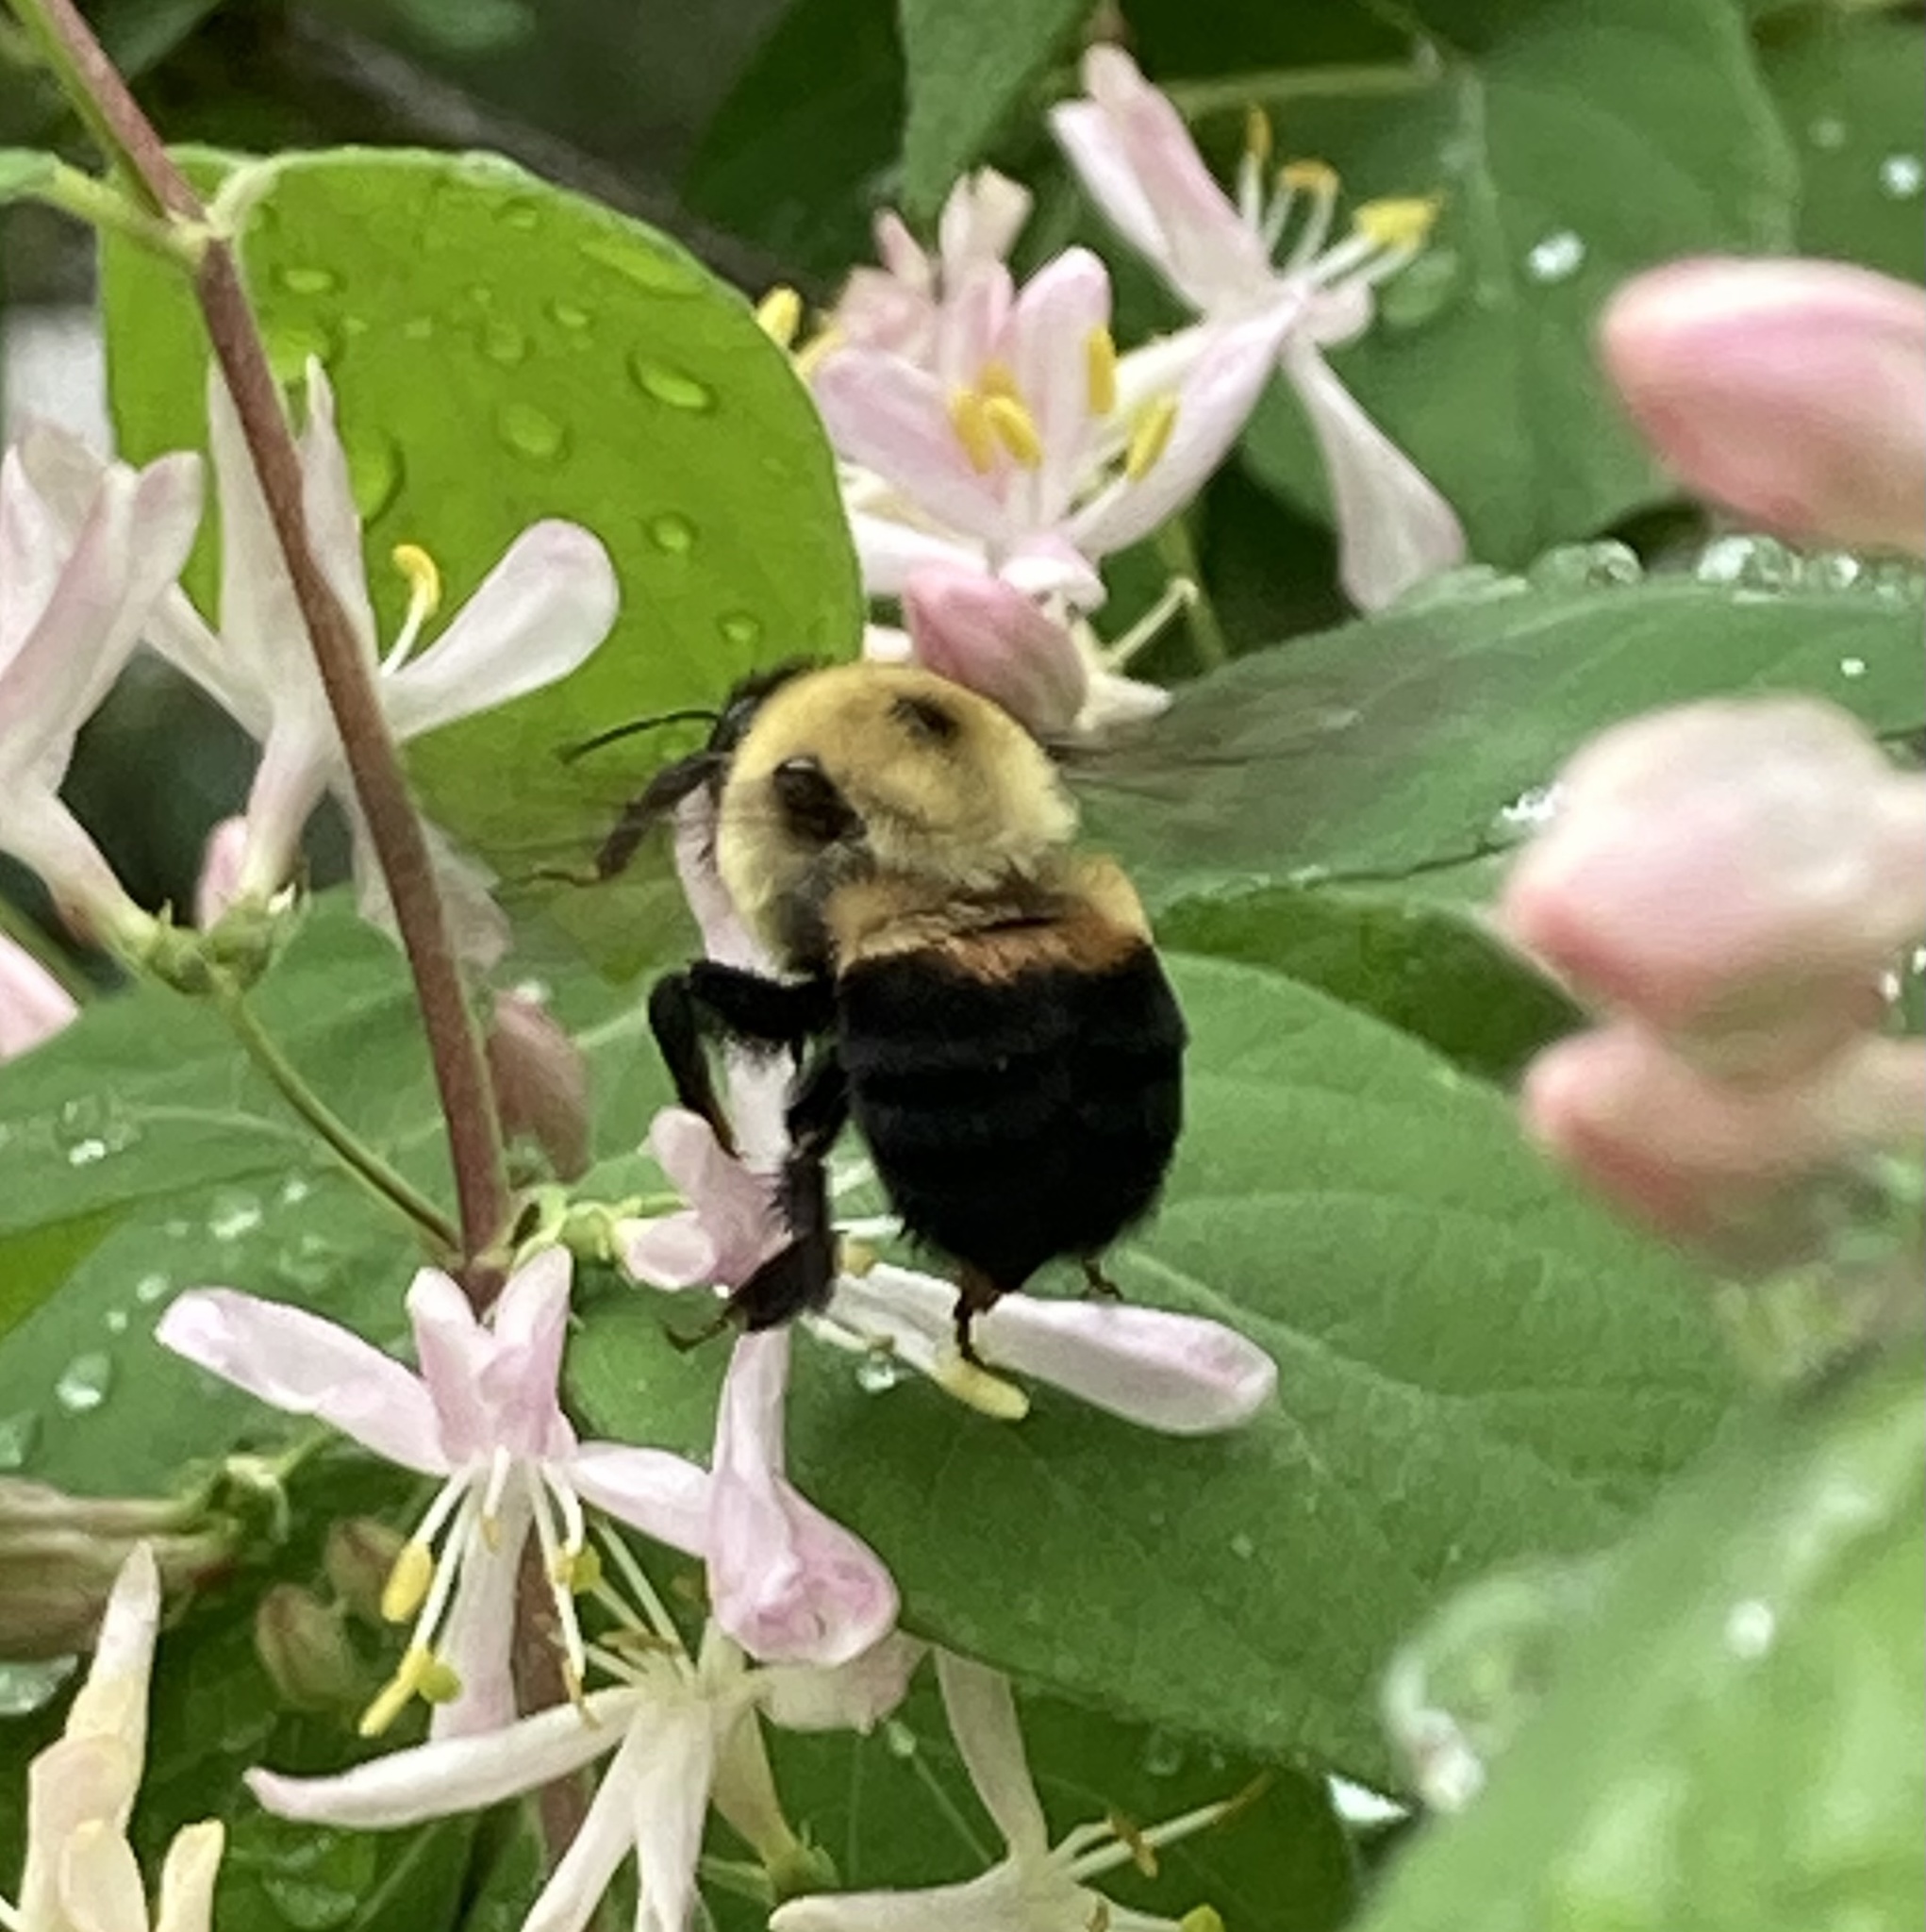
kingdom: Animalia
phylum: Arthropoda
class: Insecta
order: Hymenoptera
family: Apidae
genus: Bombus
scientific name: Bombus griseocollis
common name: Brown-belted bumble bee
